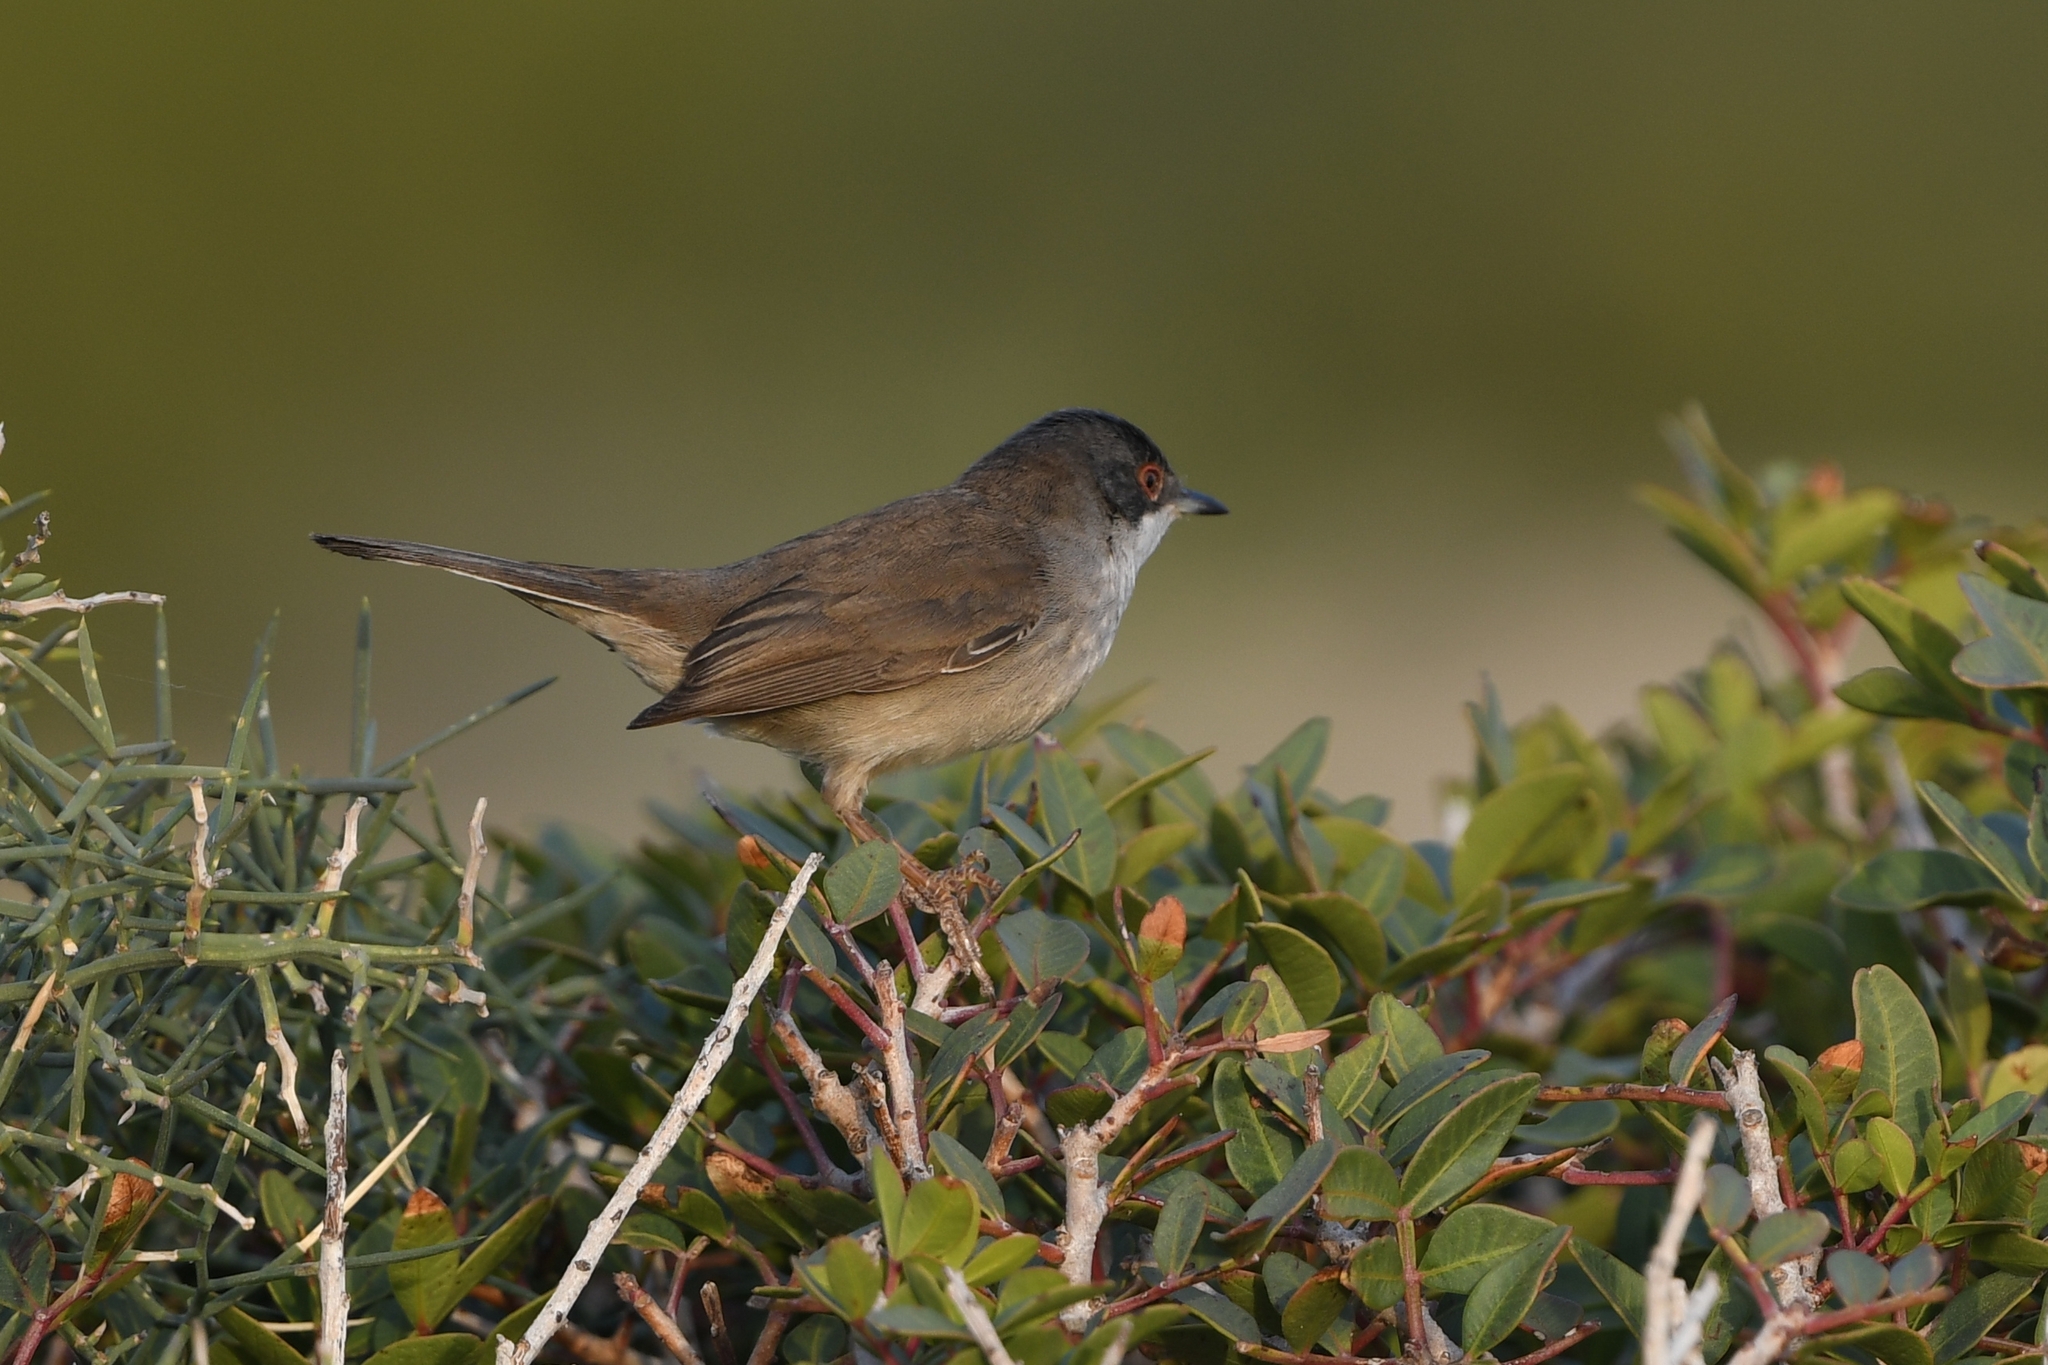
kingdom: Animalia
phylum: Chordata
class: Aves
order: Passeriformes
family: Sylviidae
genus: Curruca
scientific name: Curruca melanocephala
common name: Sardinian warbler
